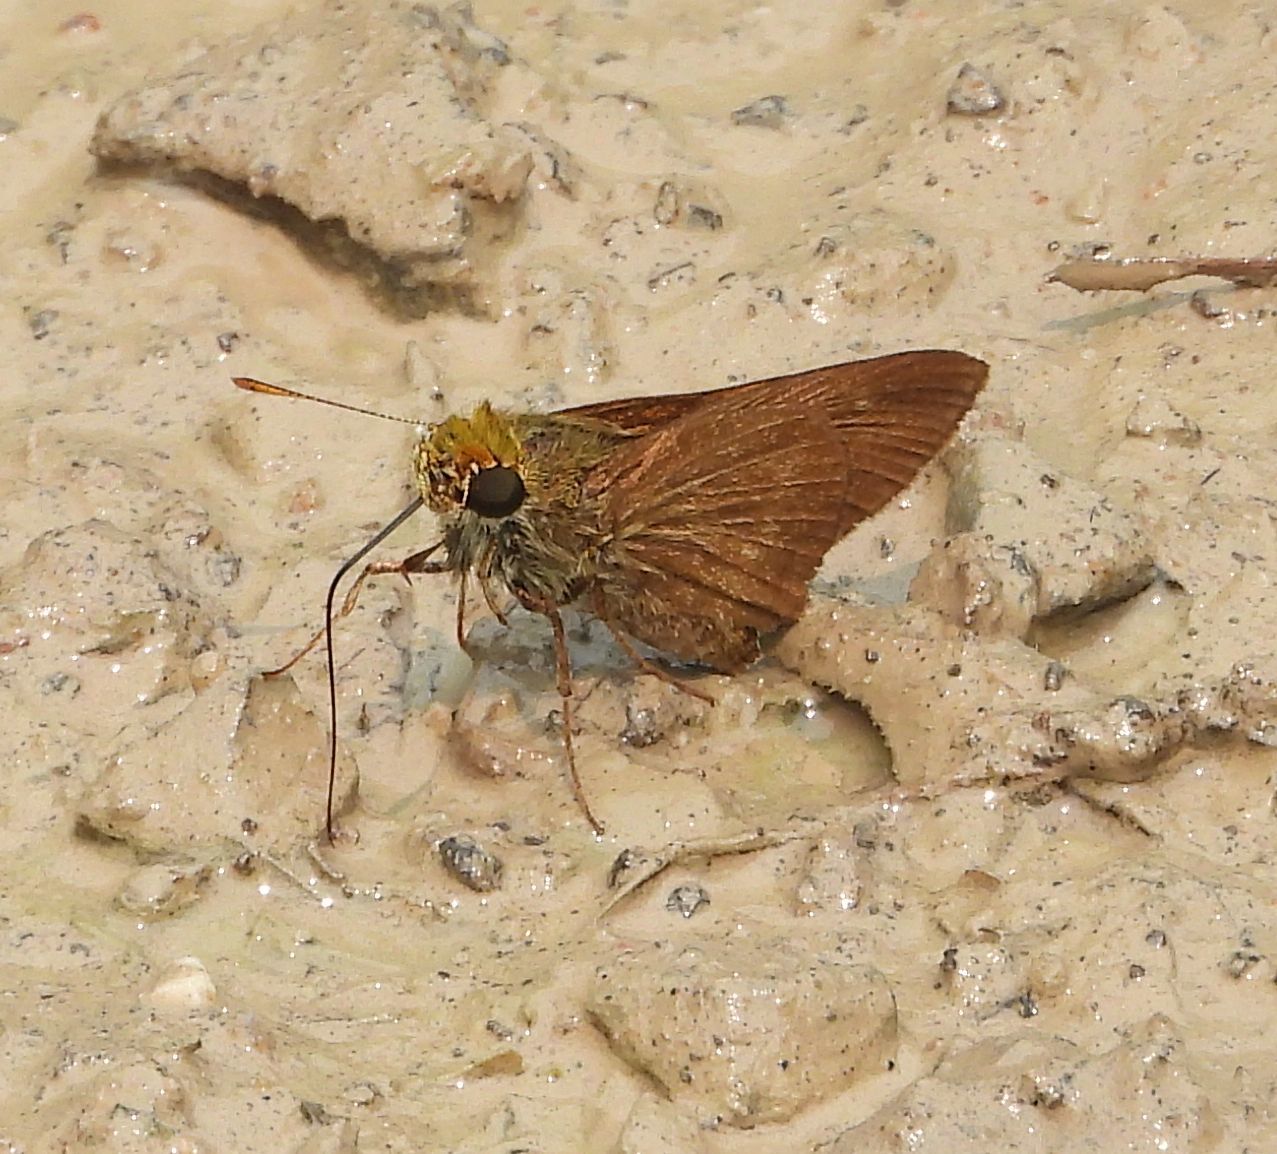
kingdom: Animalia
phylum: Arthropoda
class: Insecta
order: Lepidoptera
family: Hesperiidae
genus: Euphyes
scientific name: Euphyes vestris
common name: Dun skipper
